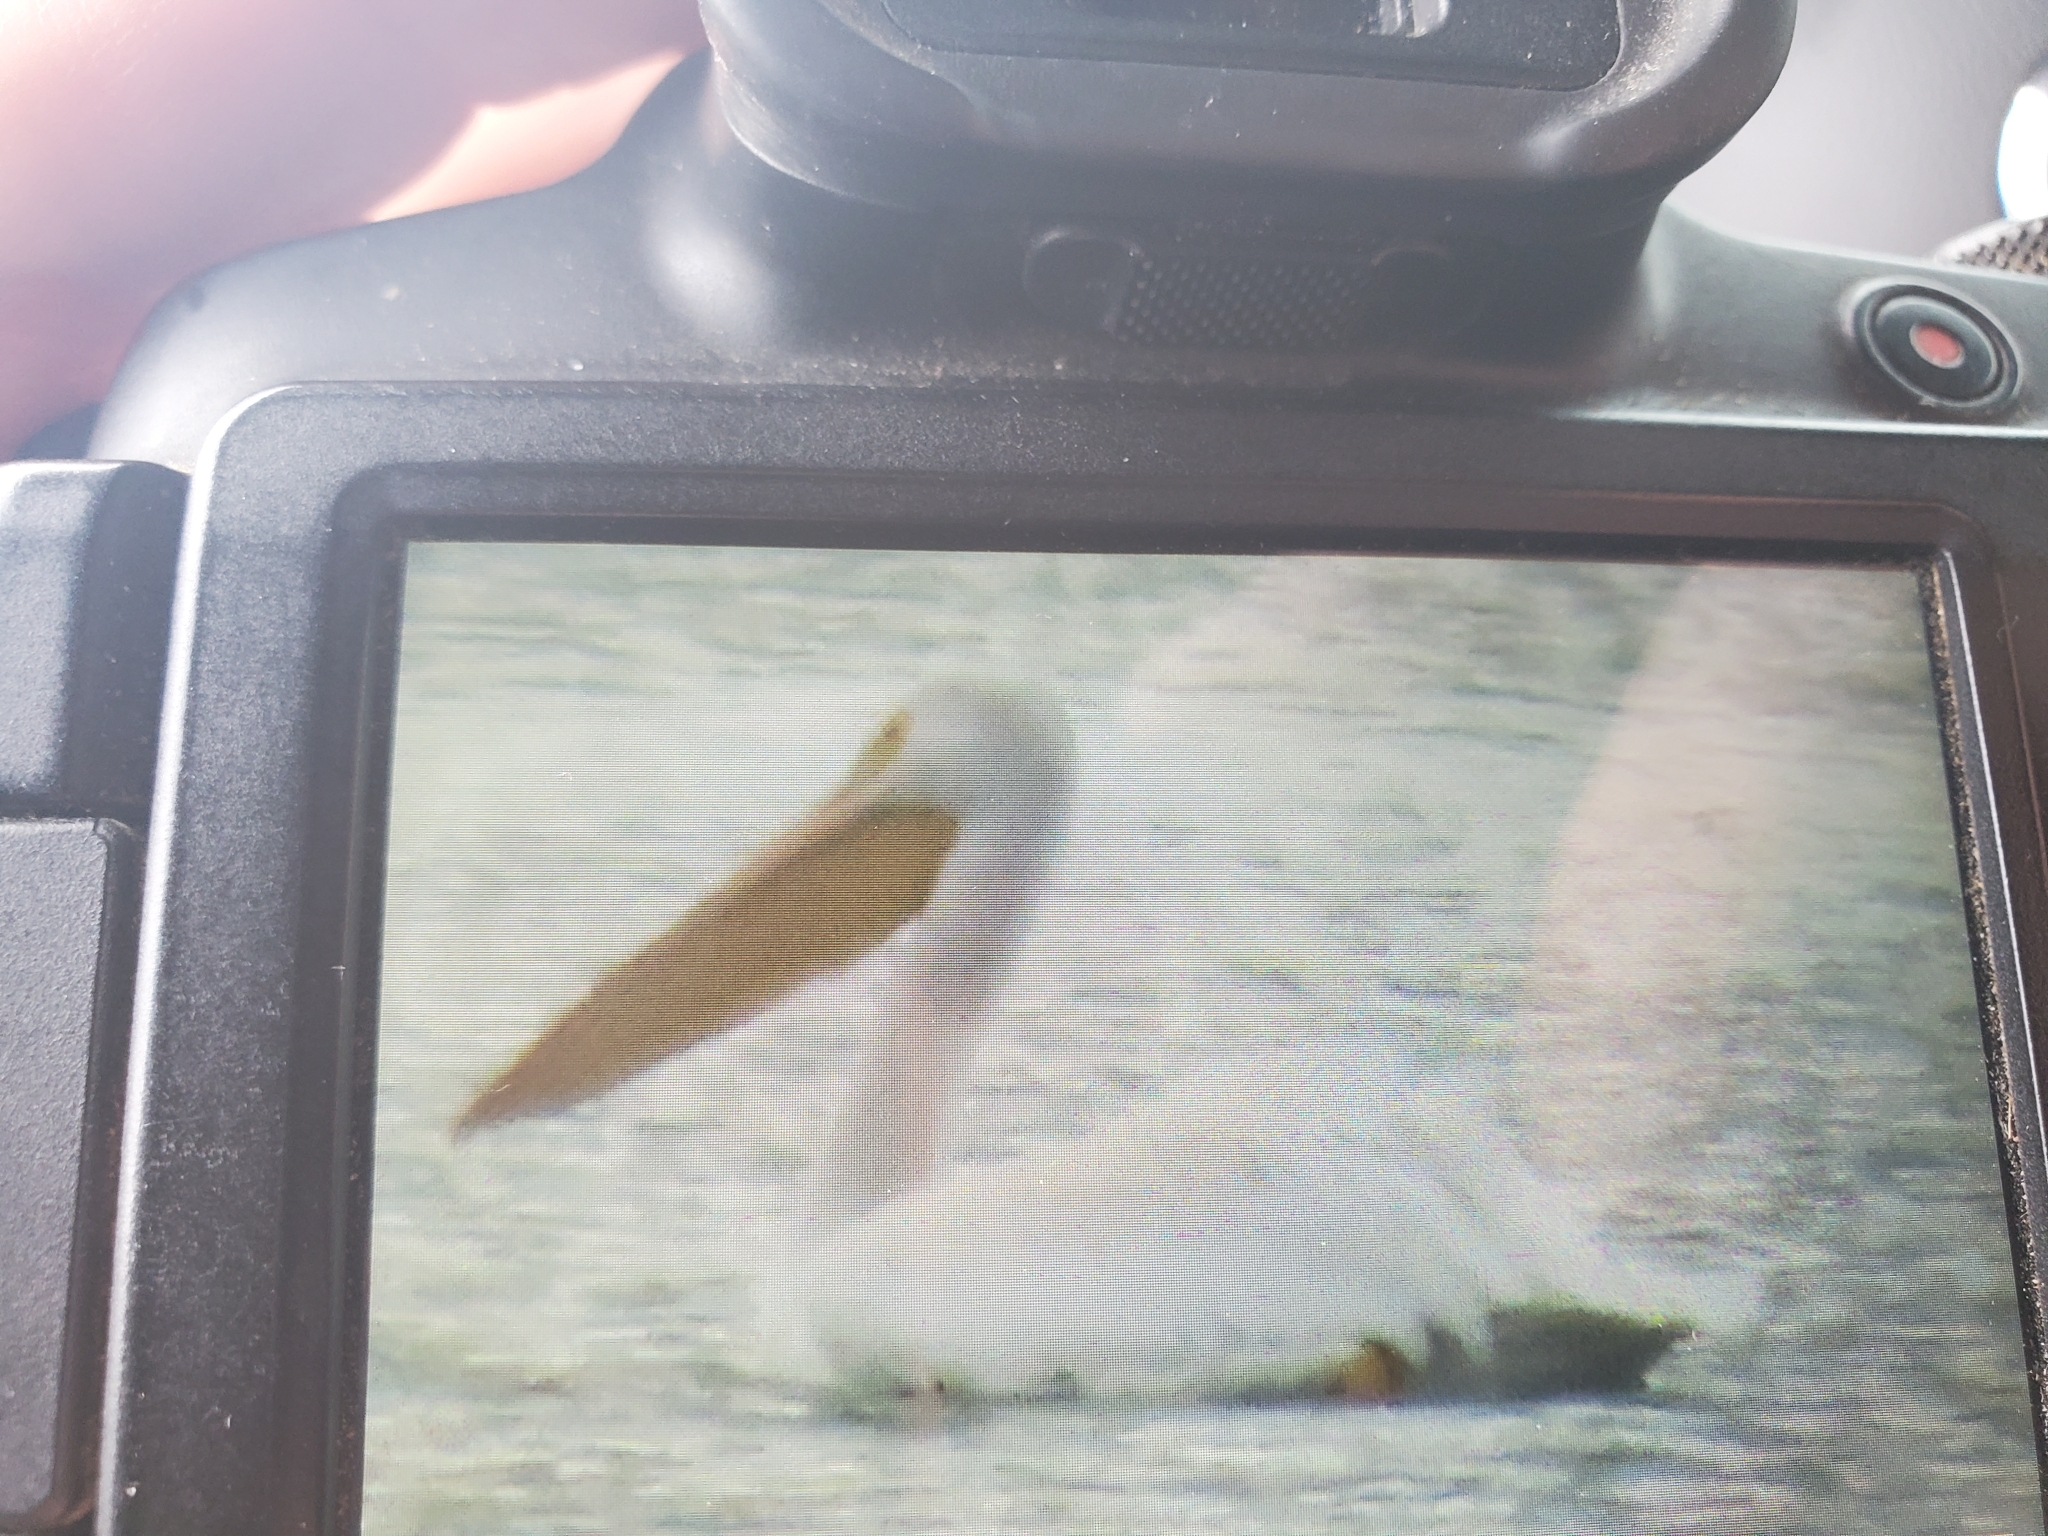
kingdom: Animalia
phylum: Chordata
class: Aves
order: Pelecaniformes
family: Pelecanidae
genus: Pelecanus
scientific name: Pelecanus erythrorhynchos
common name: American white pelican
